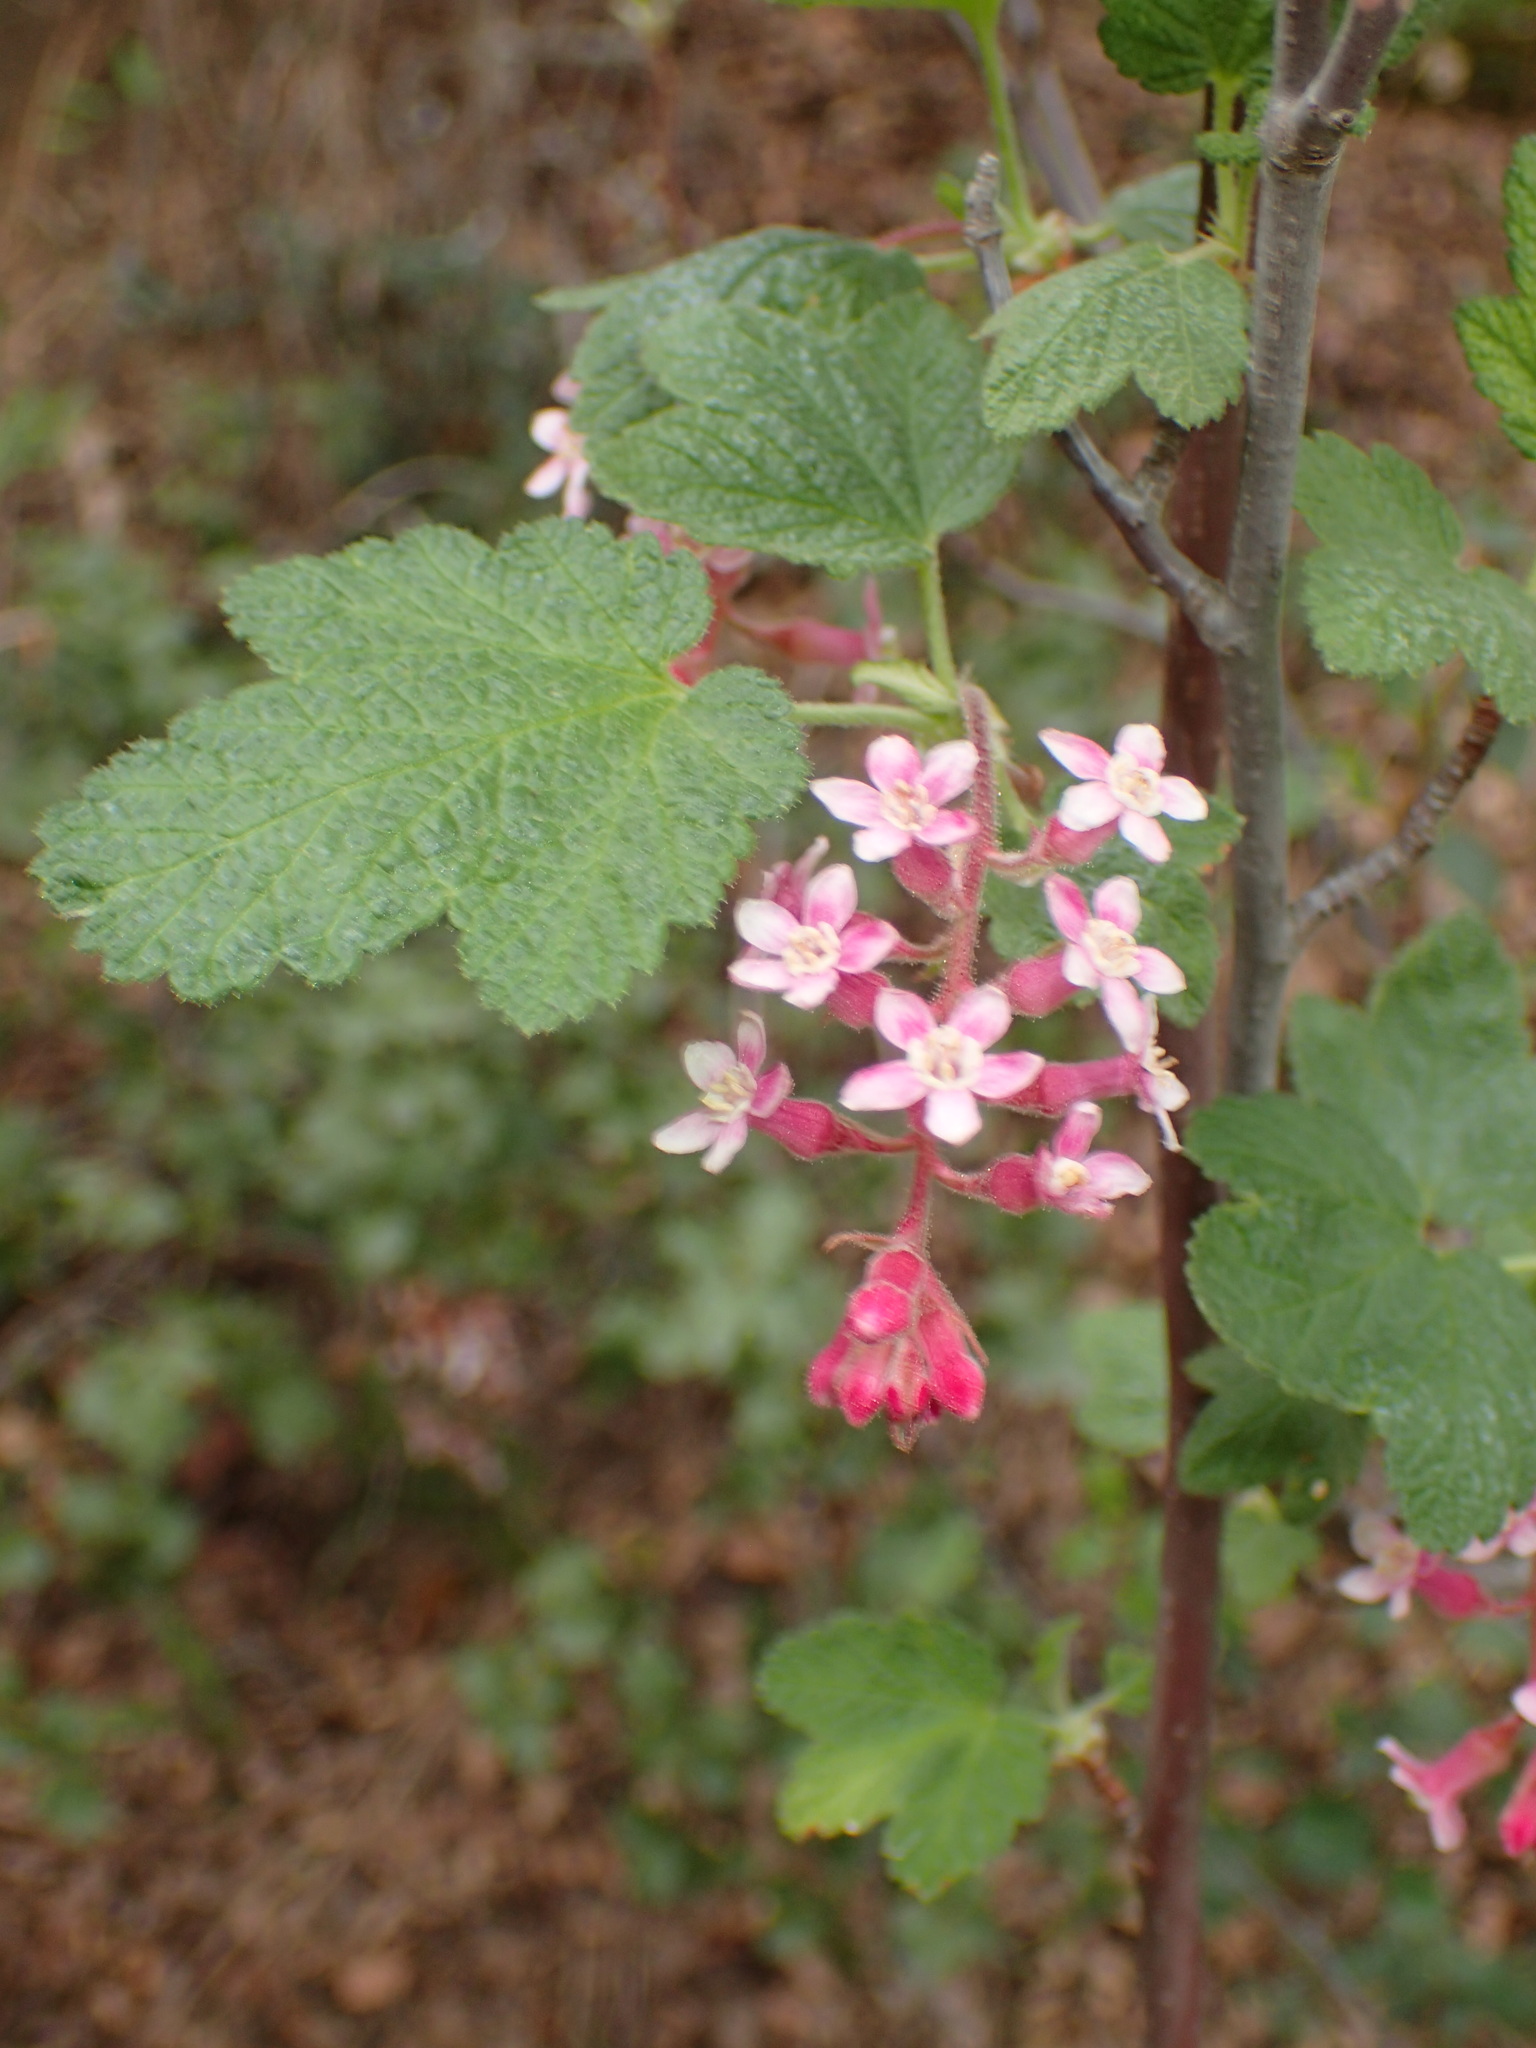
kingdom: Plantae
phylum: Tracheophyta
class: Magnoliopsida
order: Saxifragales
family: Grossulariaceae
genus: Ribes
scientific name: Ribes malvaceum
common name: Chaparral currant
